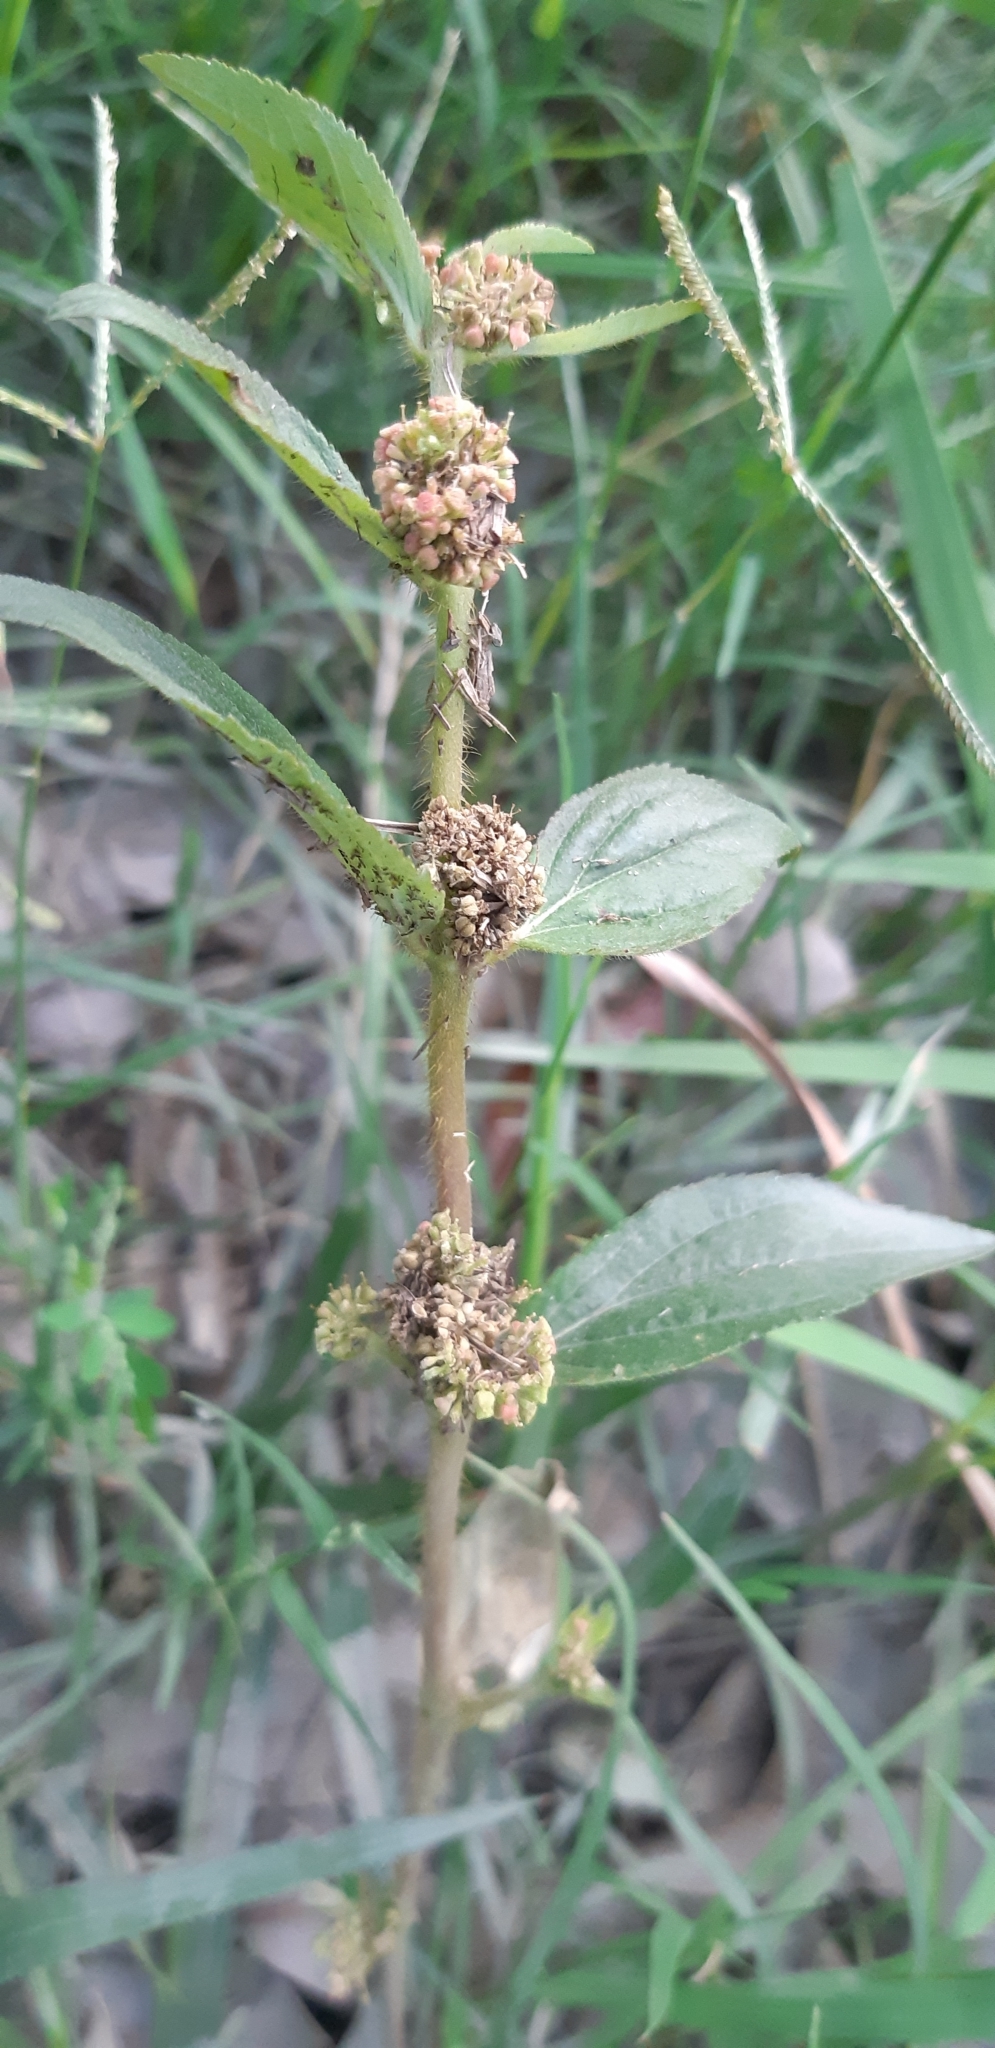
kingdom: Plantae
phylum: Tracheophyta
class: Magnoliopsida
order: Malpighiales
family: Euphorbiaceae
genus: Euphorbia
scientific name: Euphorbia hirta
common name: Pillpod sandmat
